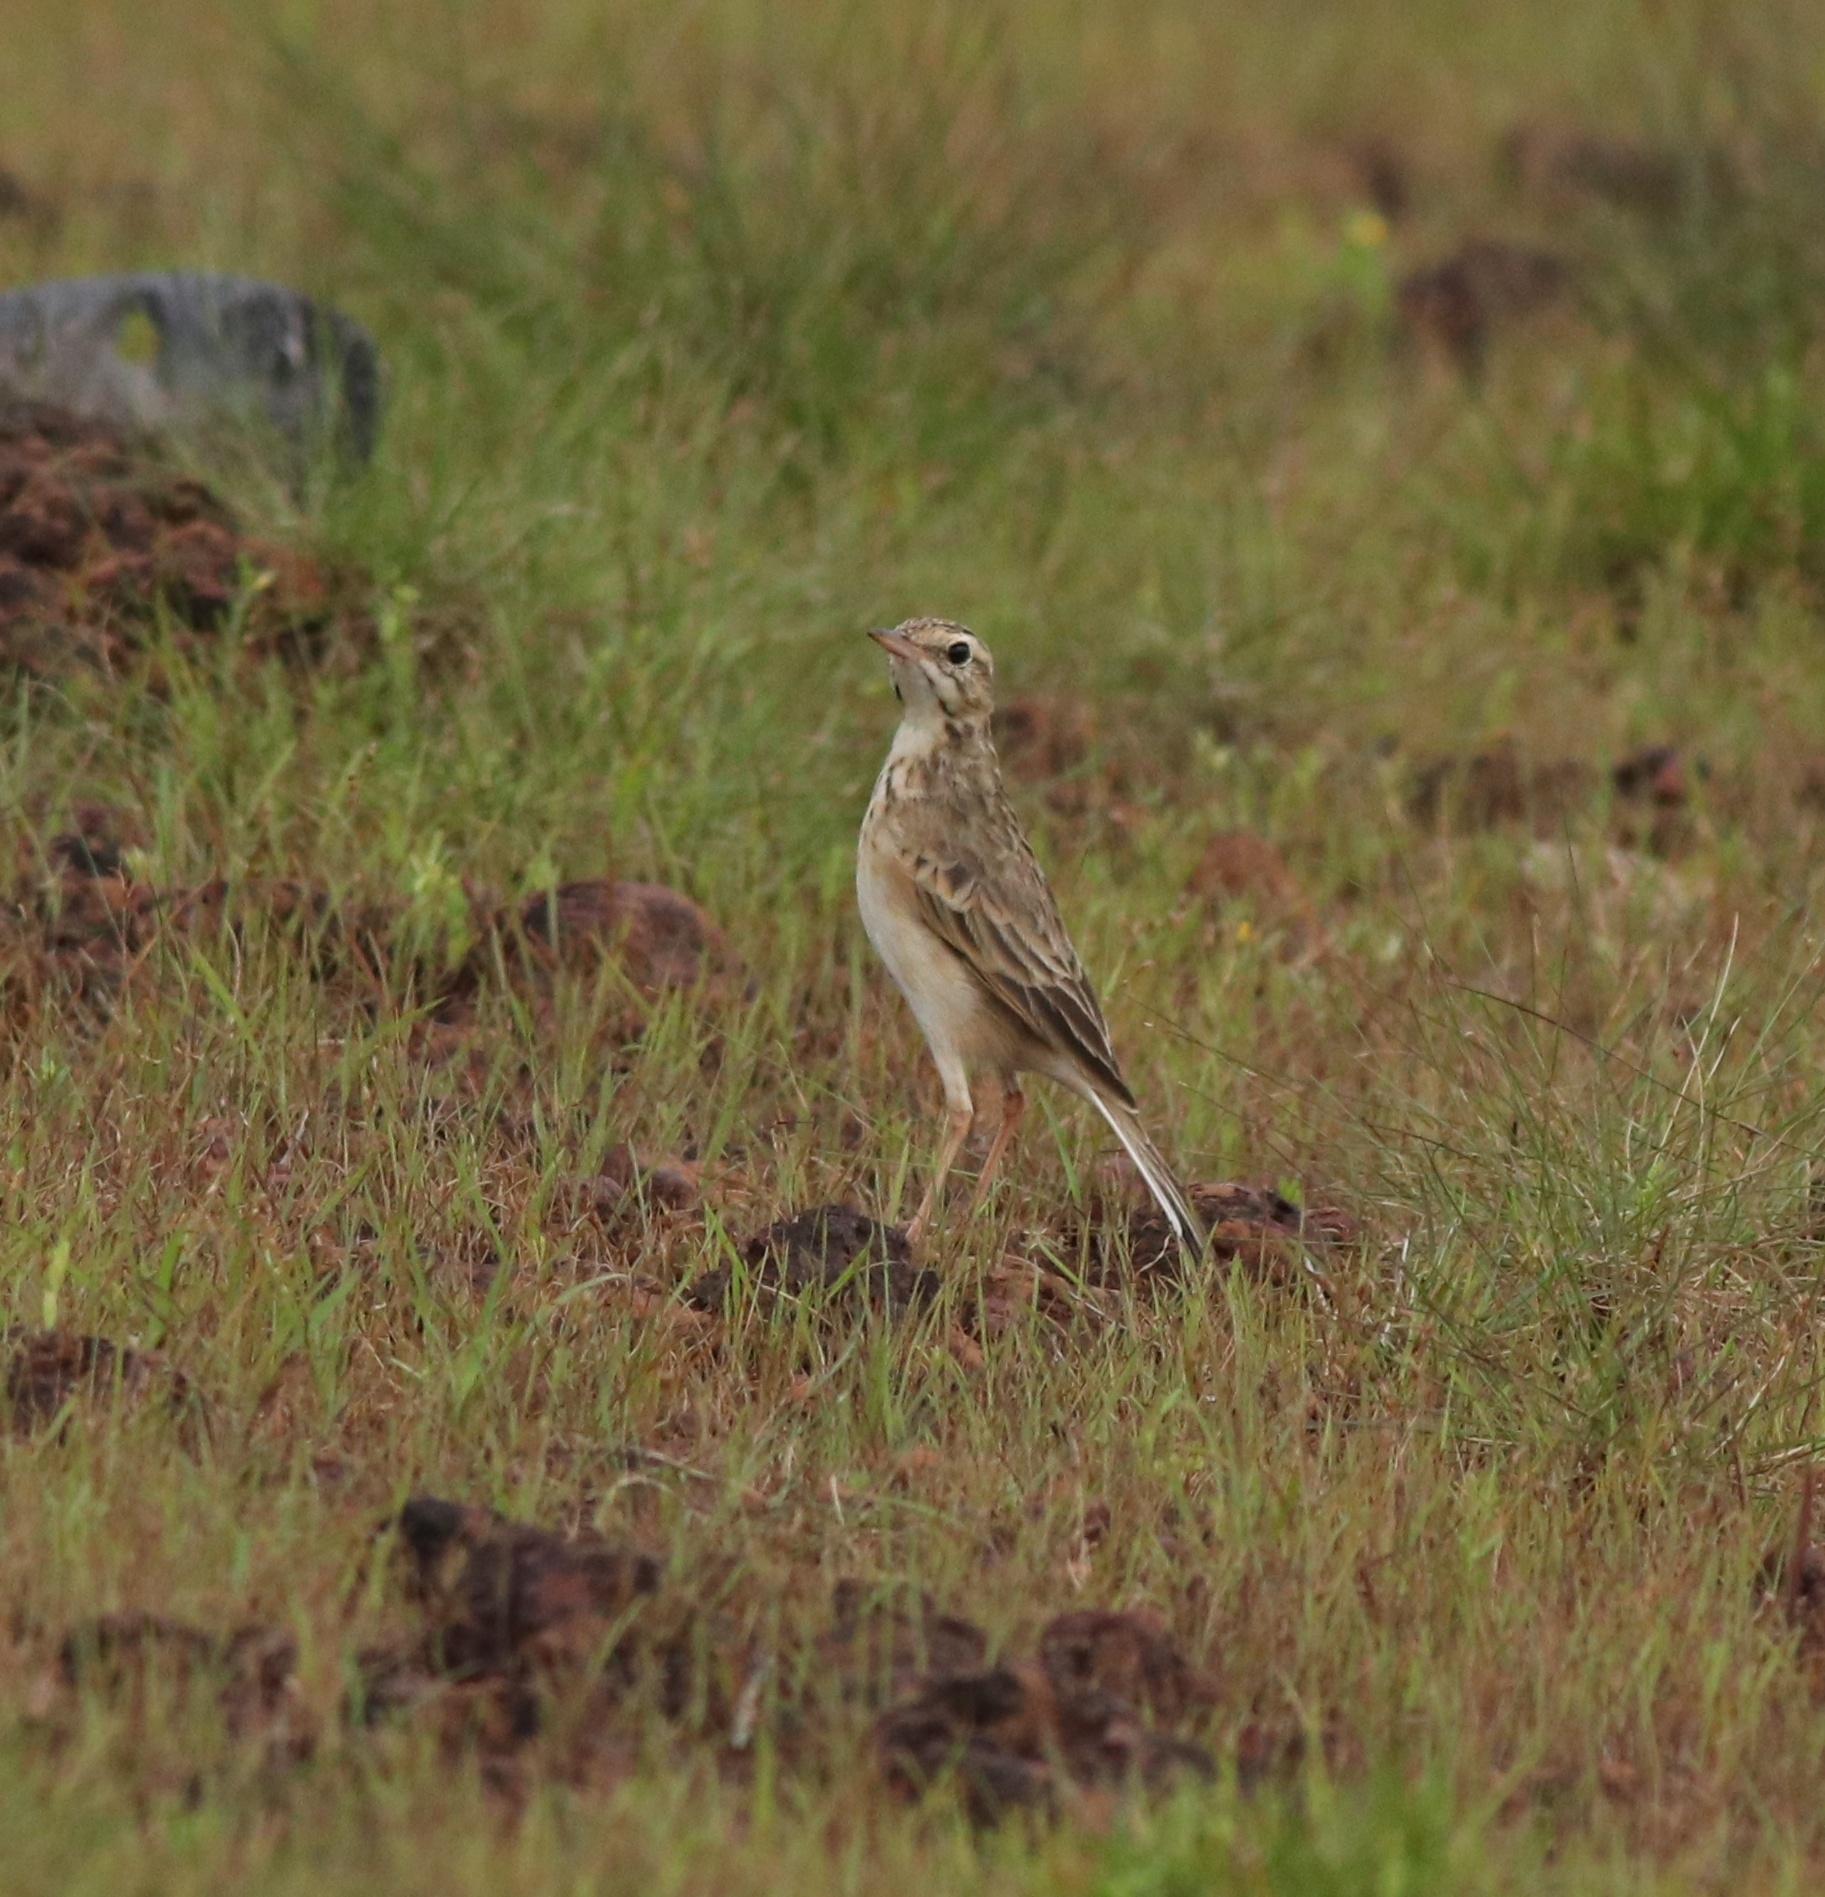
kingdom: Animalia
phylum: Chordata
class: Aves
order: Passeriformes
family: Motacillidae
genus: Anthus
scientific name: Anthus rufulus
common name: Paddyfield pipit
